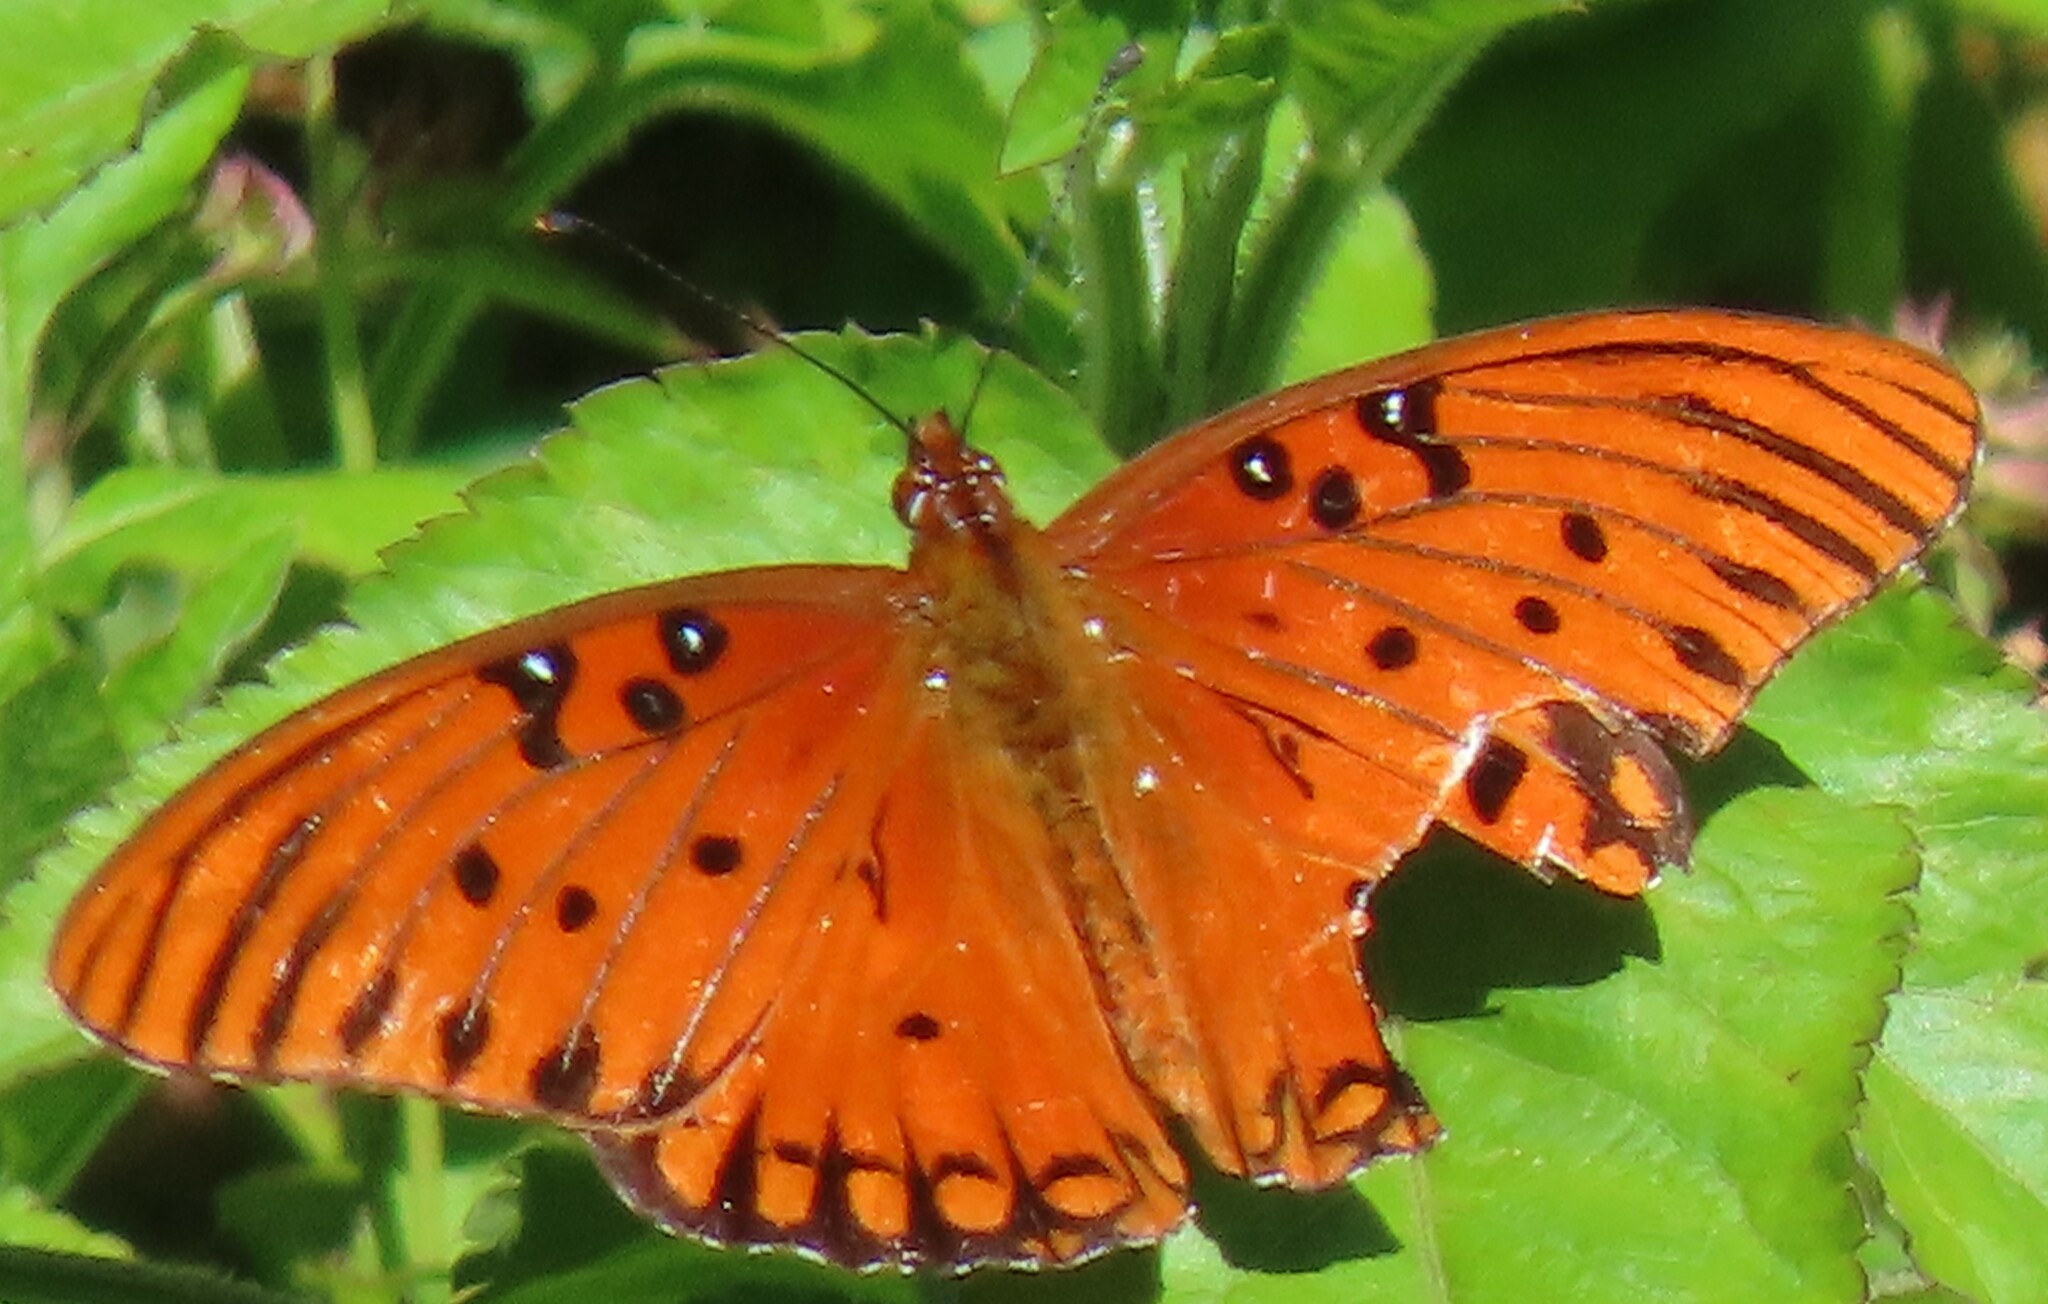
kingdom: Animalia
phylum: Arthropoda
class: Insecta
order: Lepidoptera
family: Nymphalidae
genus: Dione
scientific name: Dione vanillae
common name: Gulf fritillary
